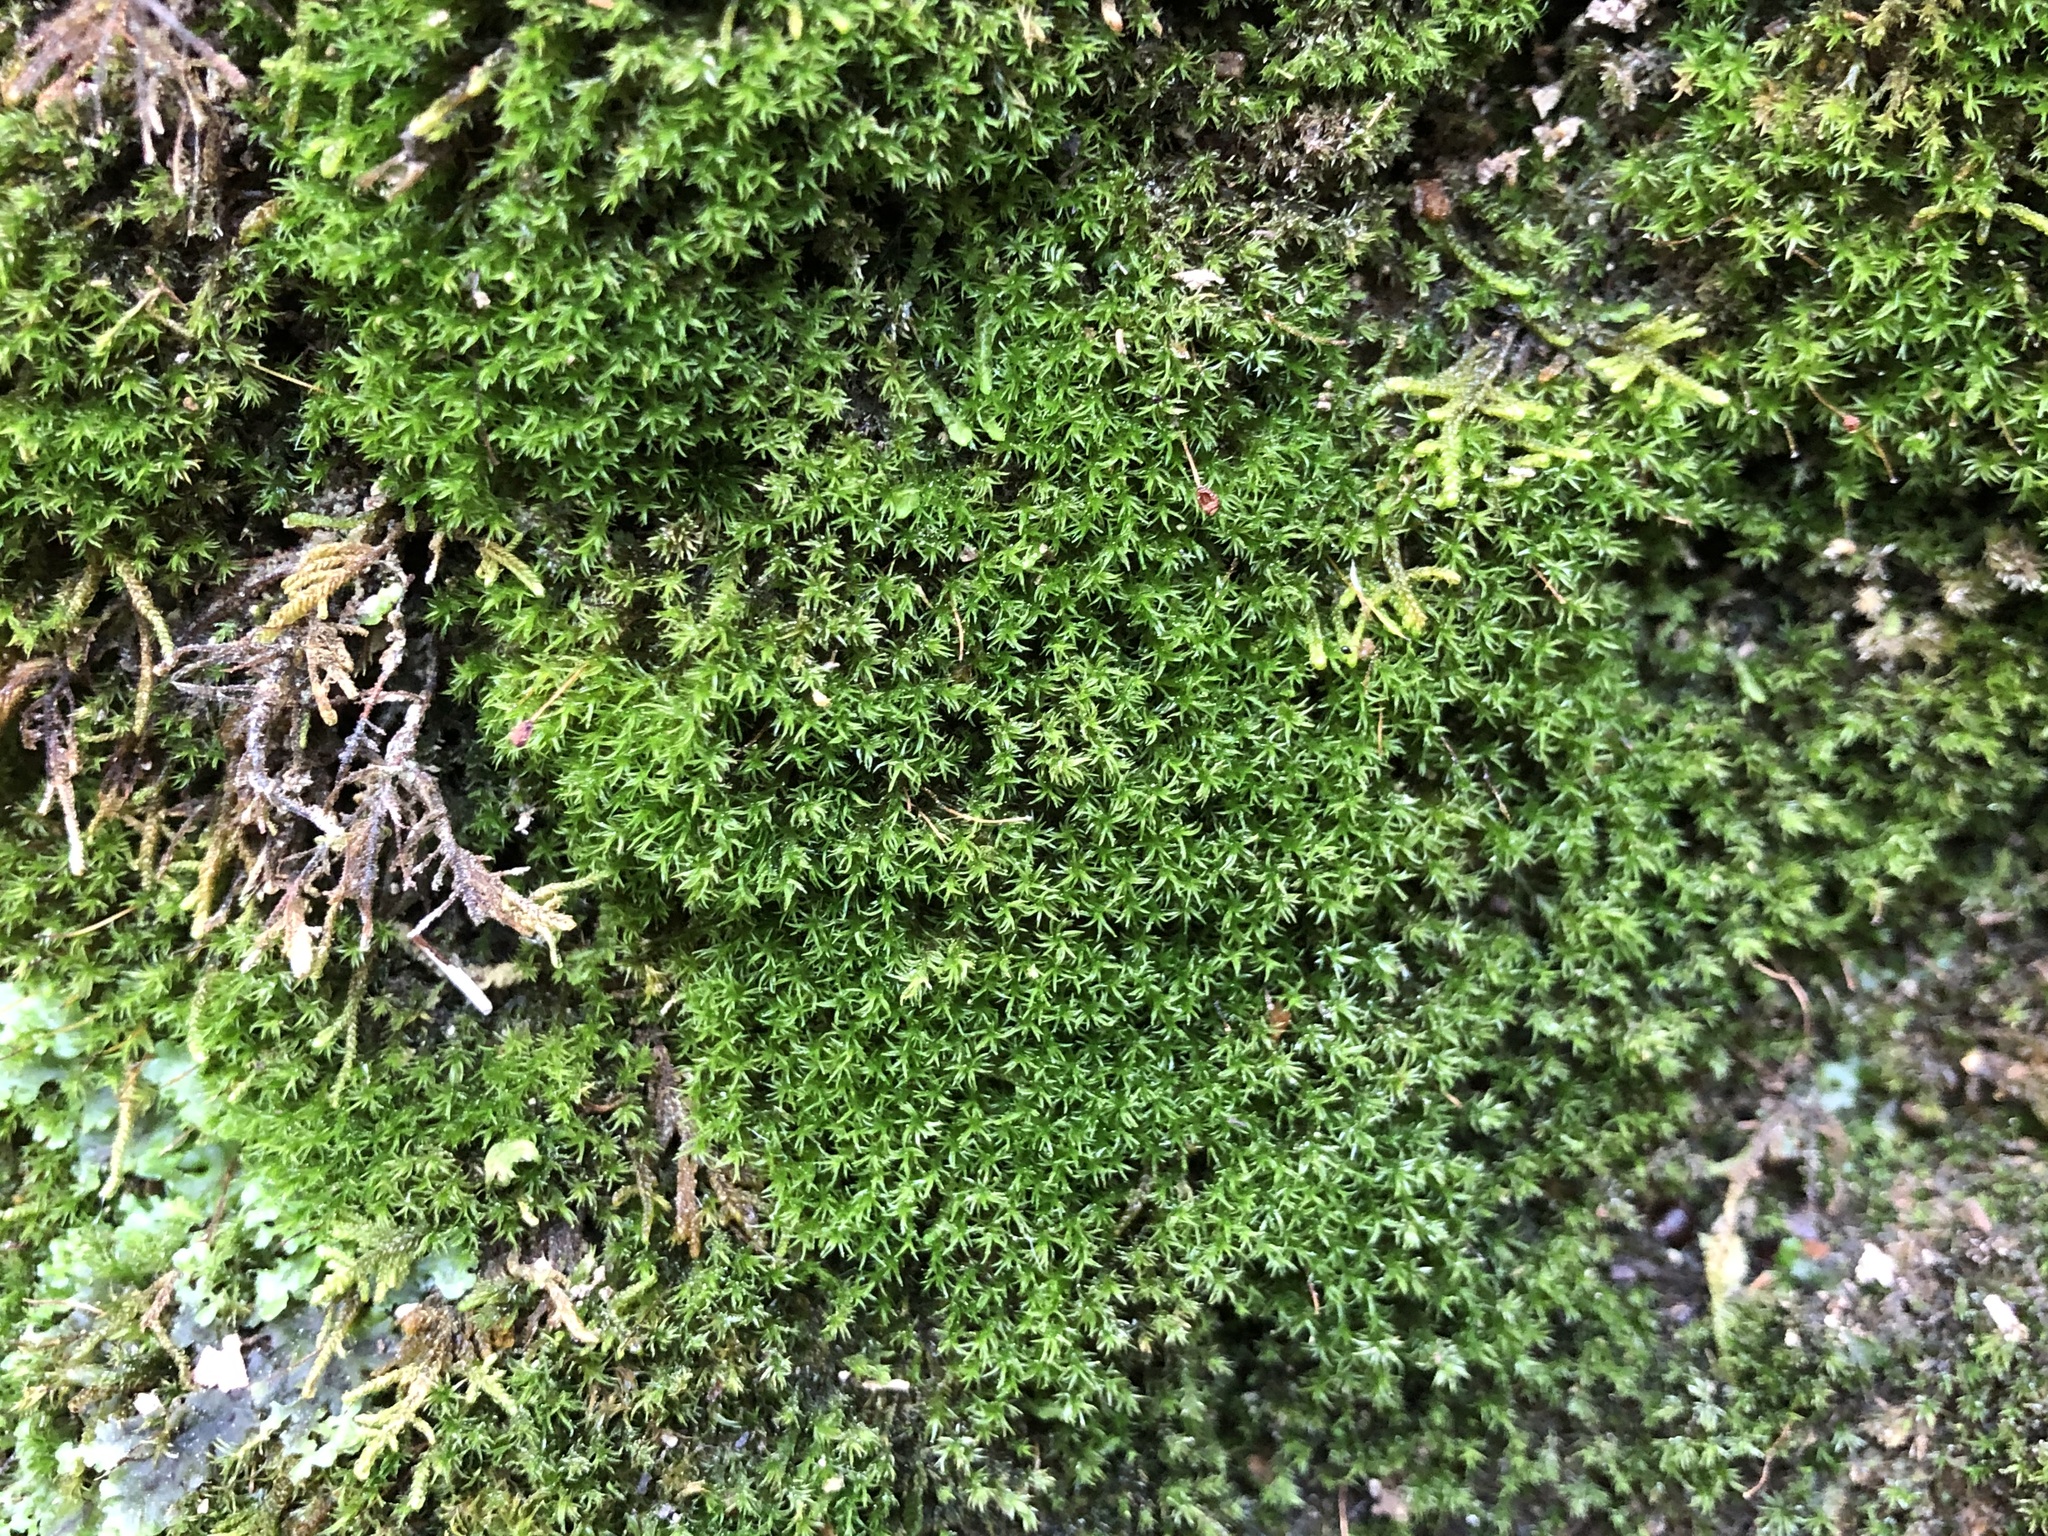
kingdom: Plantae
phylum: Bryophyta
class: Bryopsida
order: Pottiales
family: Pottiaceae
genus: Gymnostomum
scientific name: Gymnostomum aeruginosum
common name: Verdigris tufa-moss
